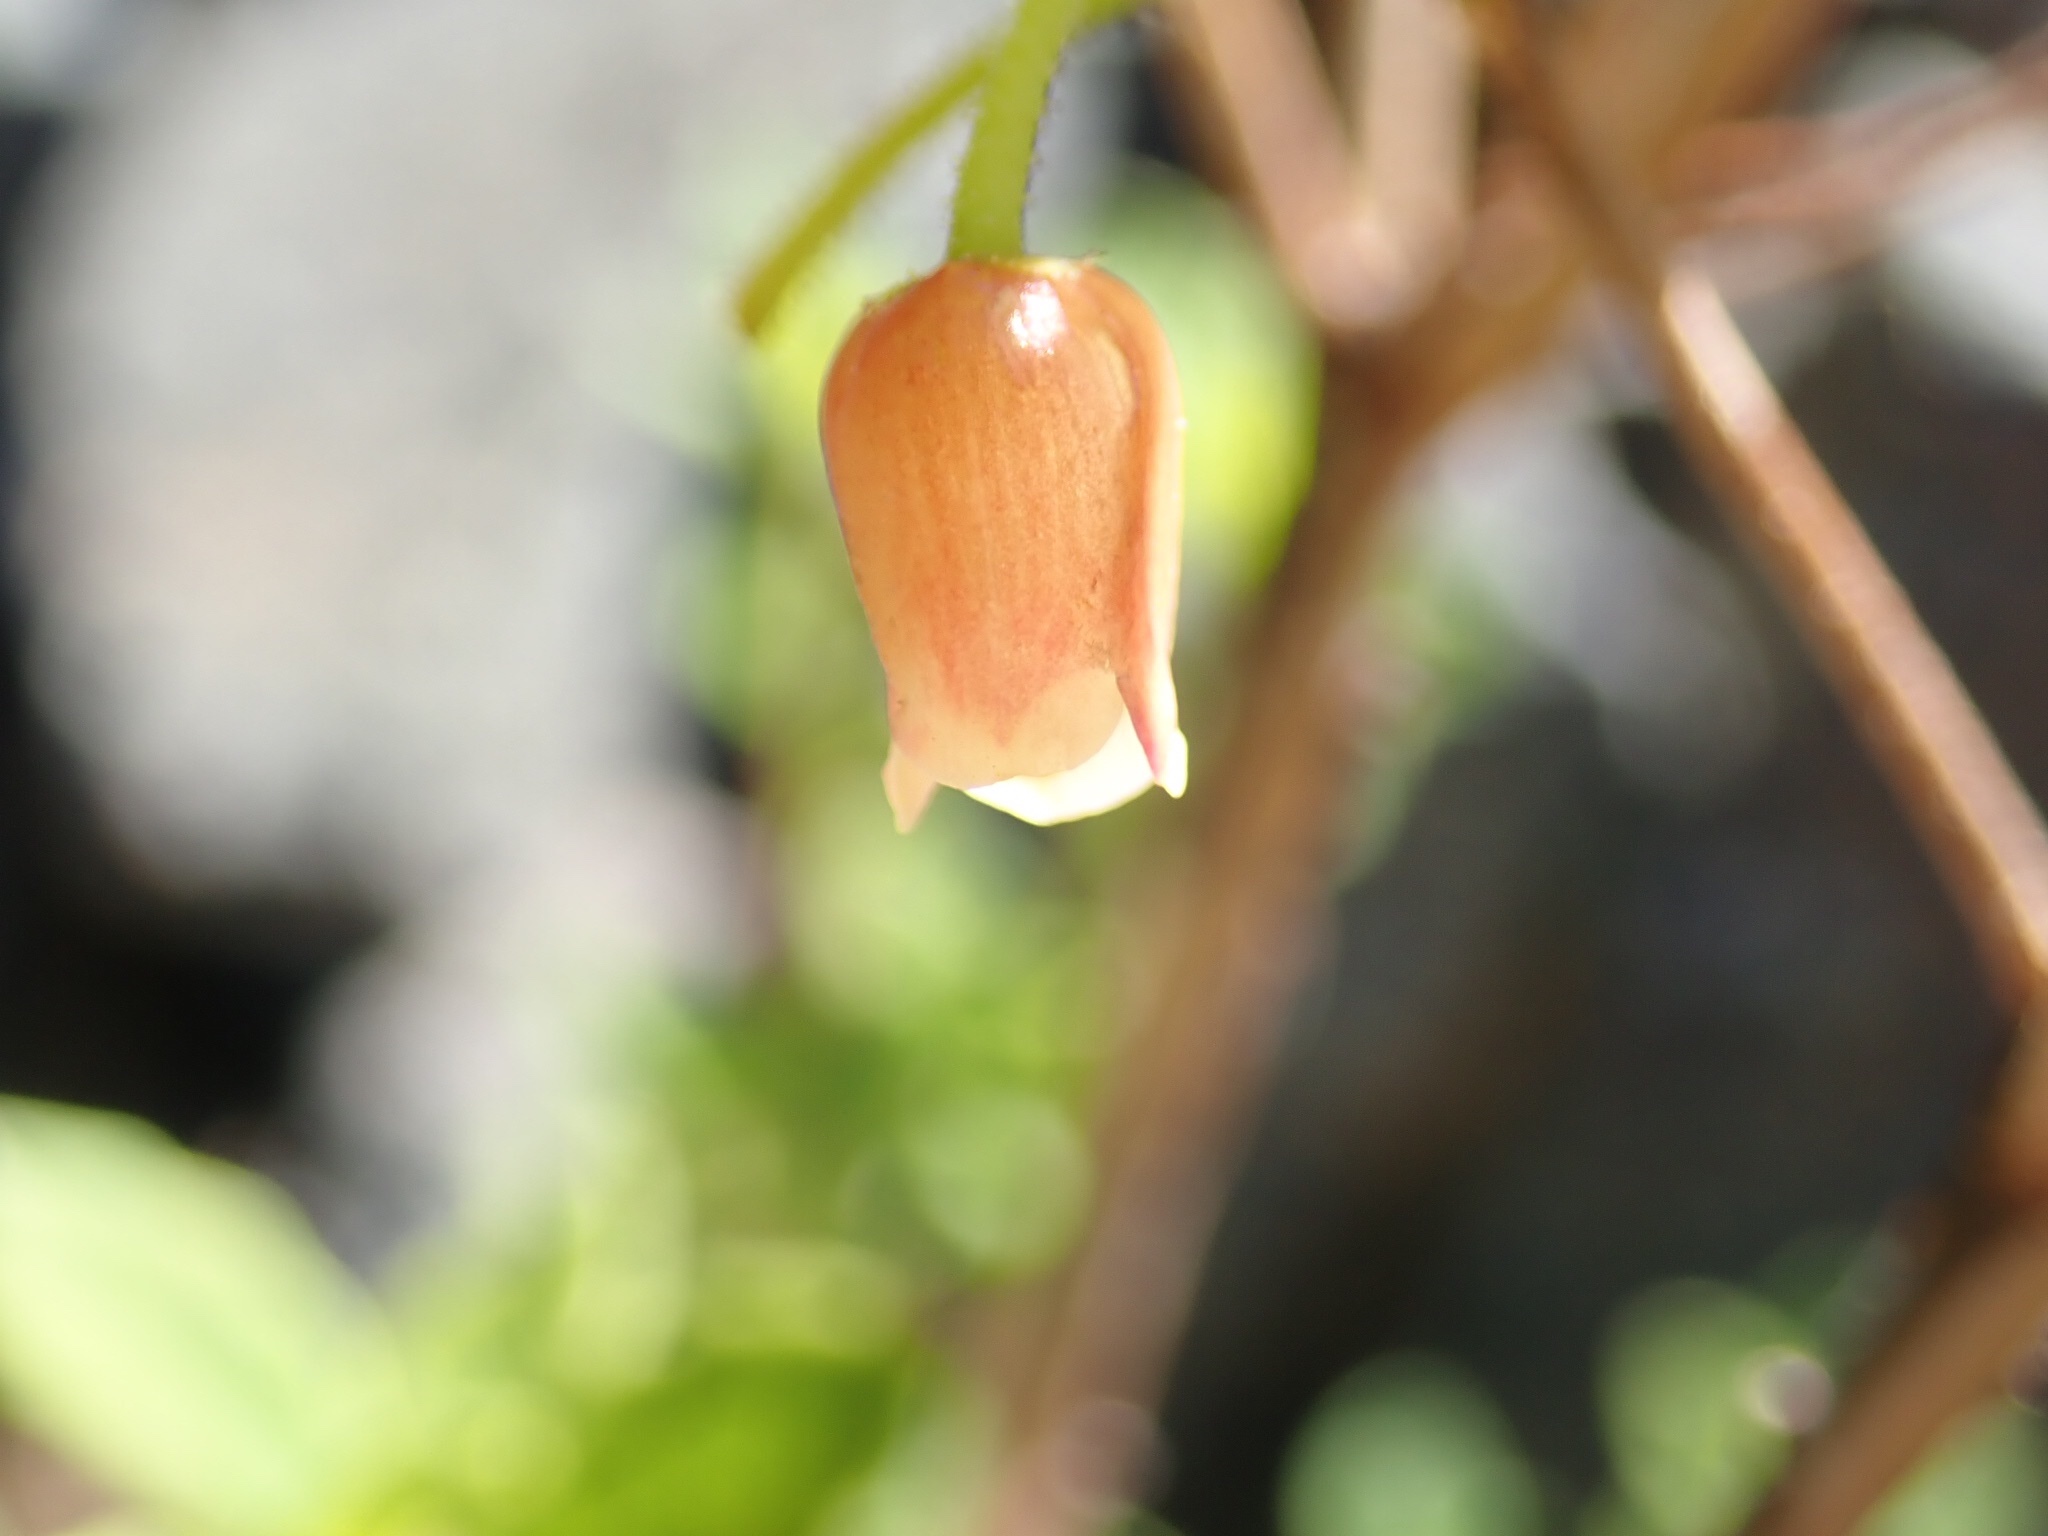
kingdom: Plantae
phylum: Tracheophyta
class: Magnoliopsida
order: Ericales
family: Ericaceae
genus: Rhododendron
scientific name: Rhododendron menziesii
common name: Pacific menziesia
